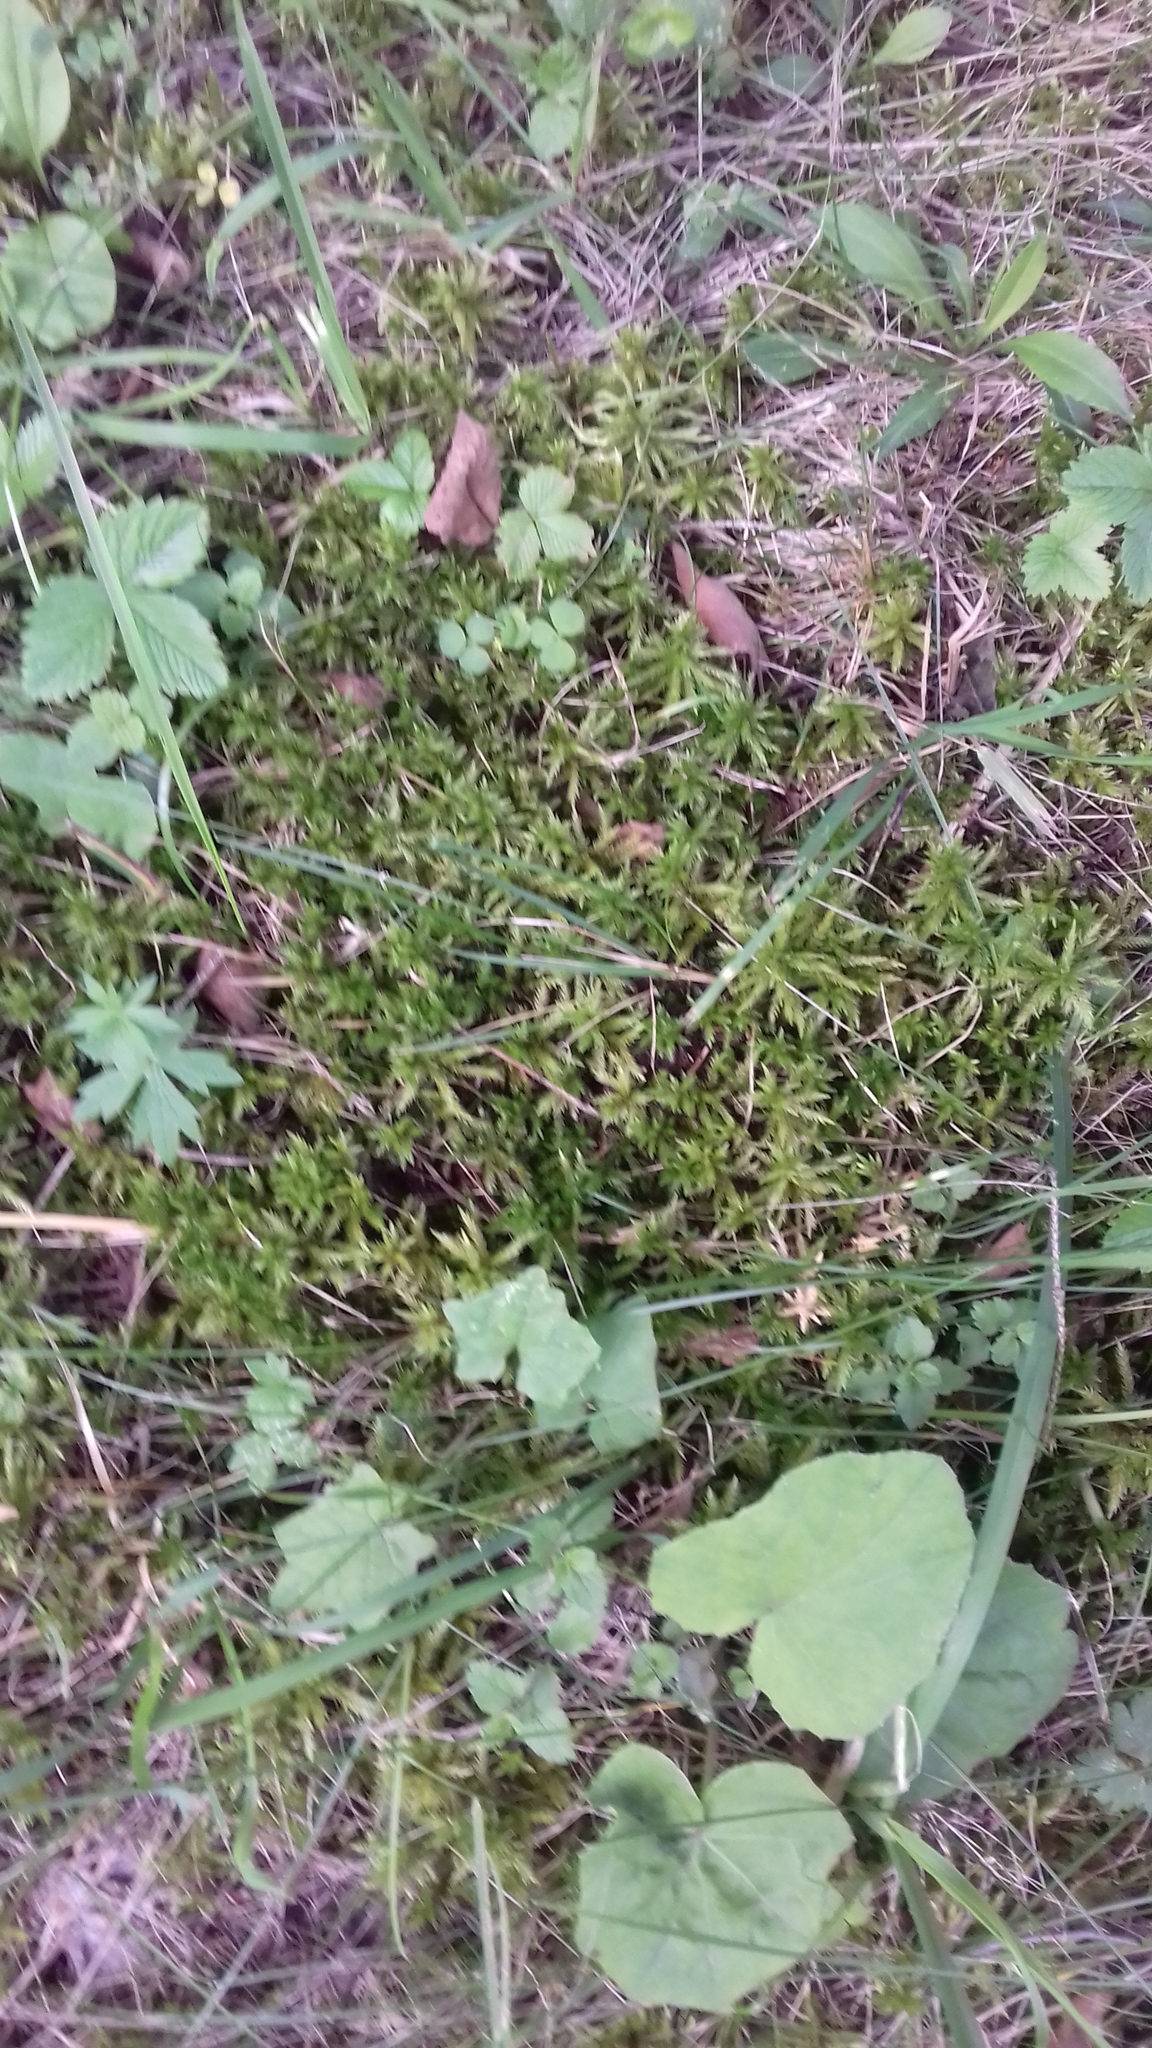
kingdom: Plantae
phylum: Bryophyta
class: Bryopsida
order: Hypnales
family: Climaciaceae
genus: Climacium
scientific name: Climacium dendroides
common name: Northern tree moss
